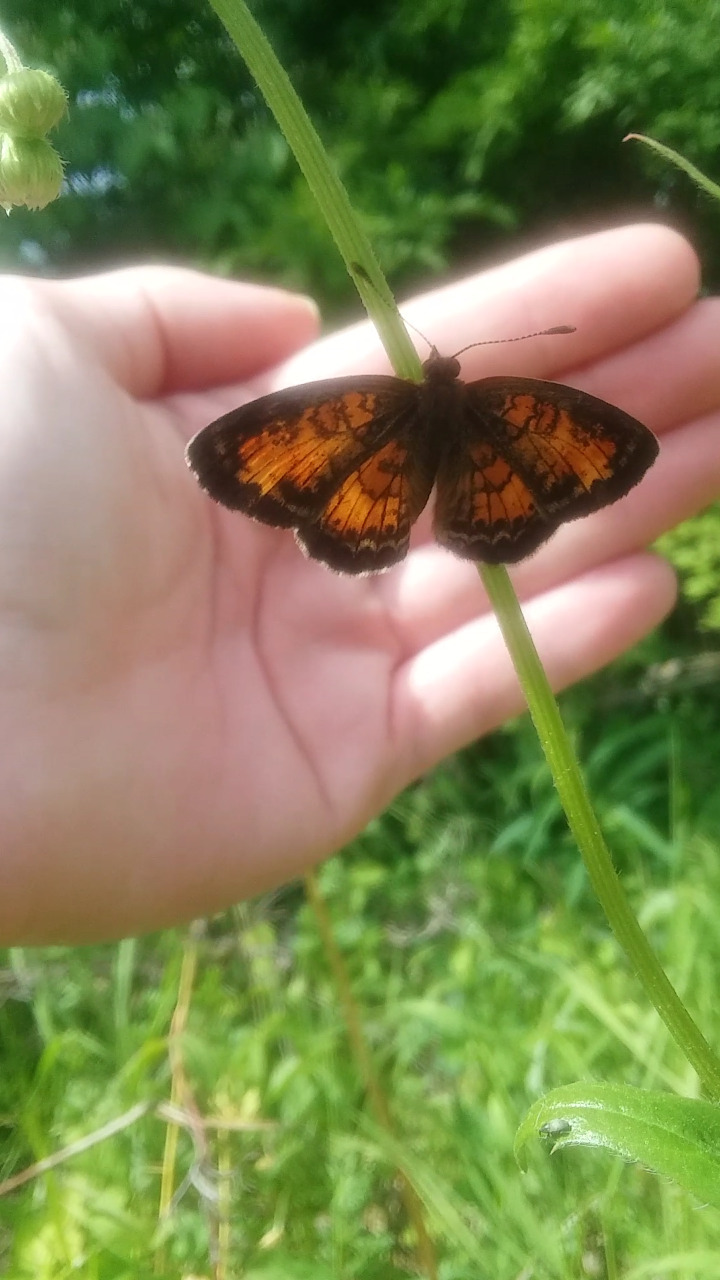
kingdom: Animalia
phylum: Arthropoda
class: Insecta
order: Lepidoptera
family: Nymphalidae
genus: Phyciodes
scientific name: Phyciodes tharos
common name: Pearl crescent
